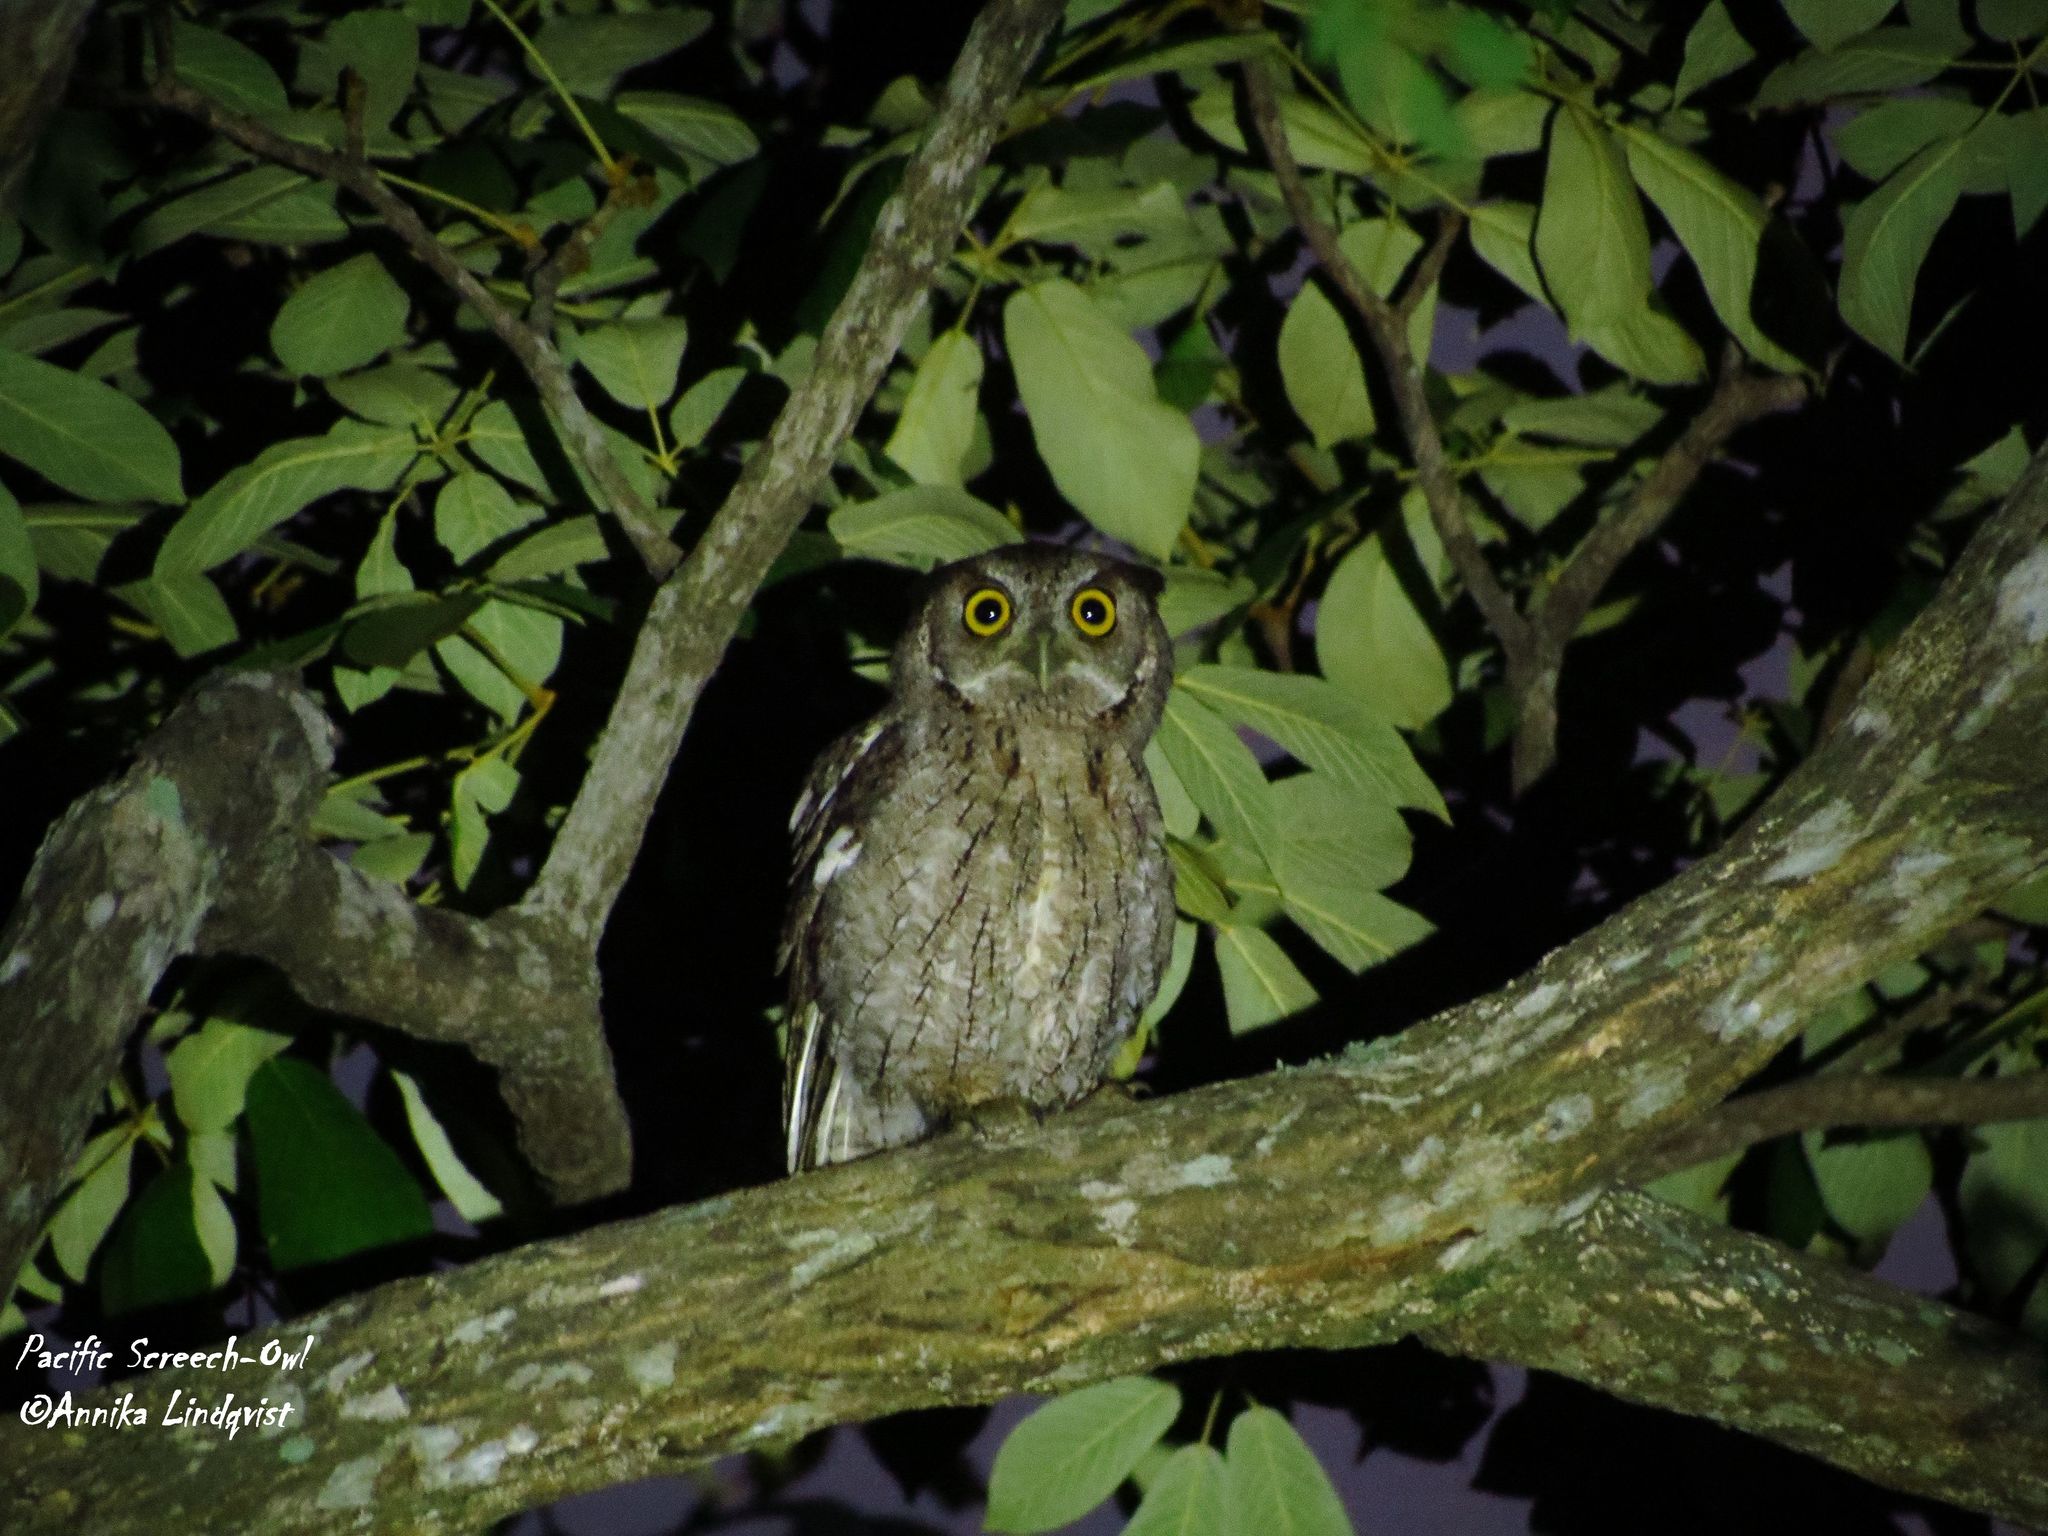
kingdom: Animalia
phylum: Chordata
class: Aves
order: Strigiformes
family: Strigidae
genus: Megascops
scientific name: Megascops cooperi
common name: Pacific screech-owl
